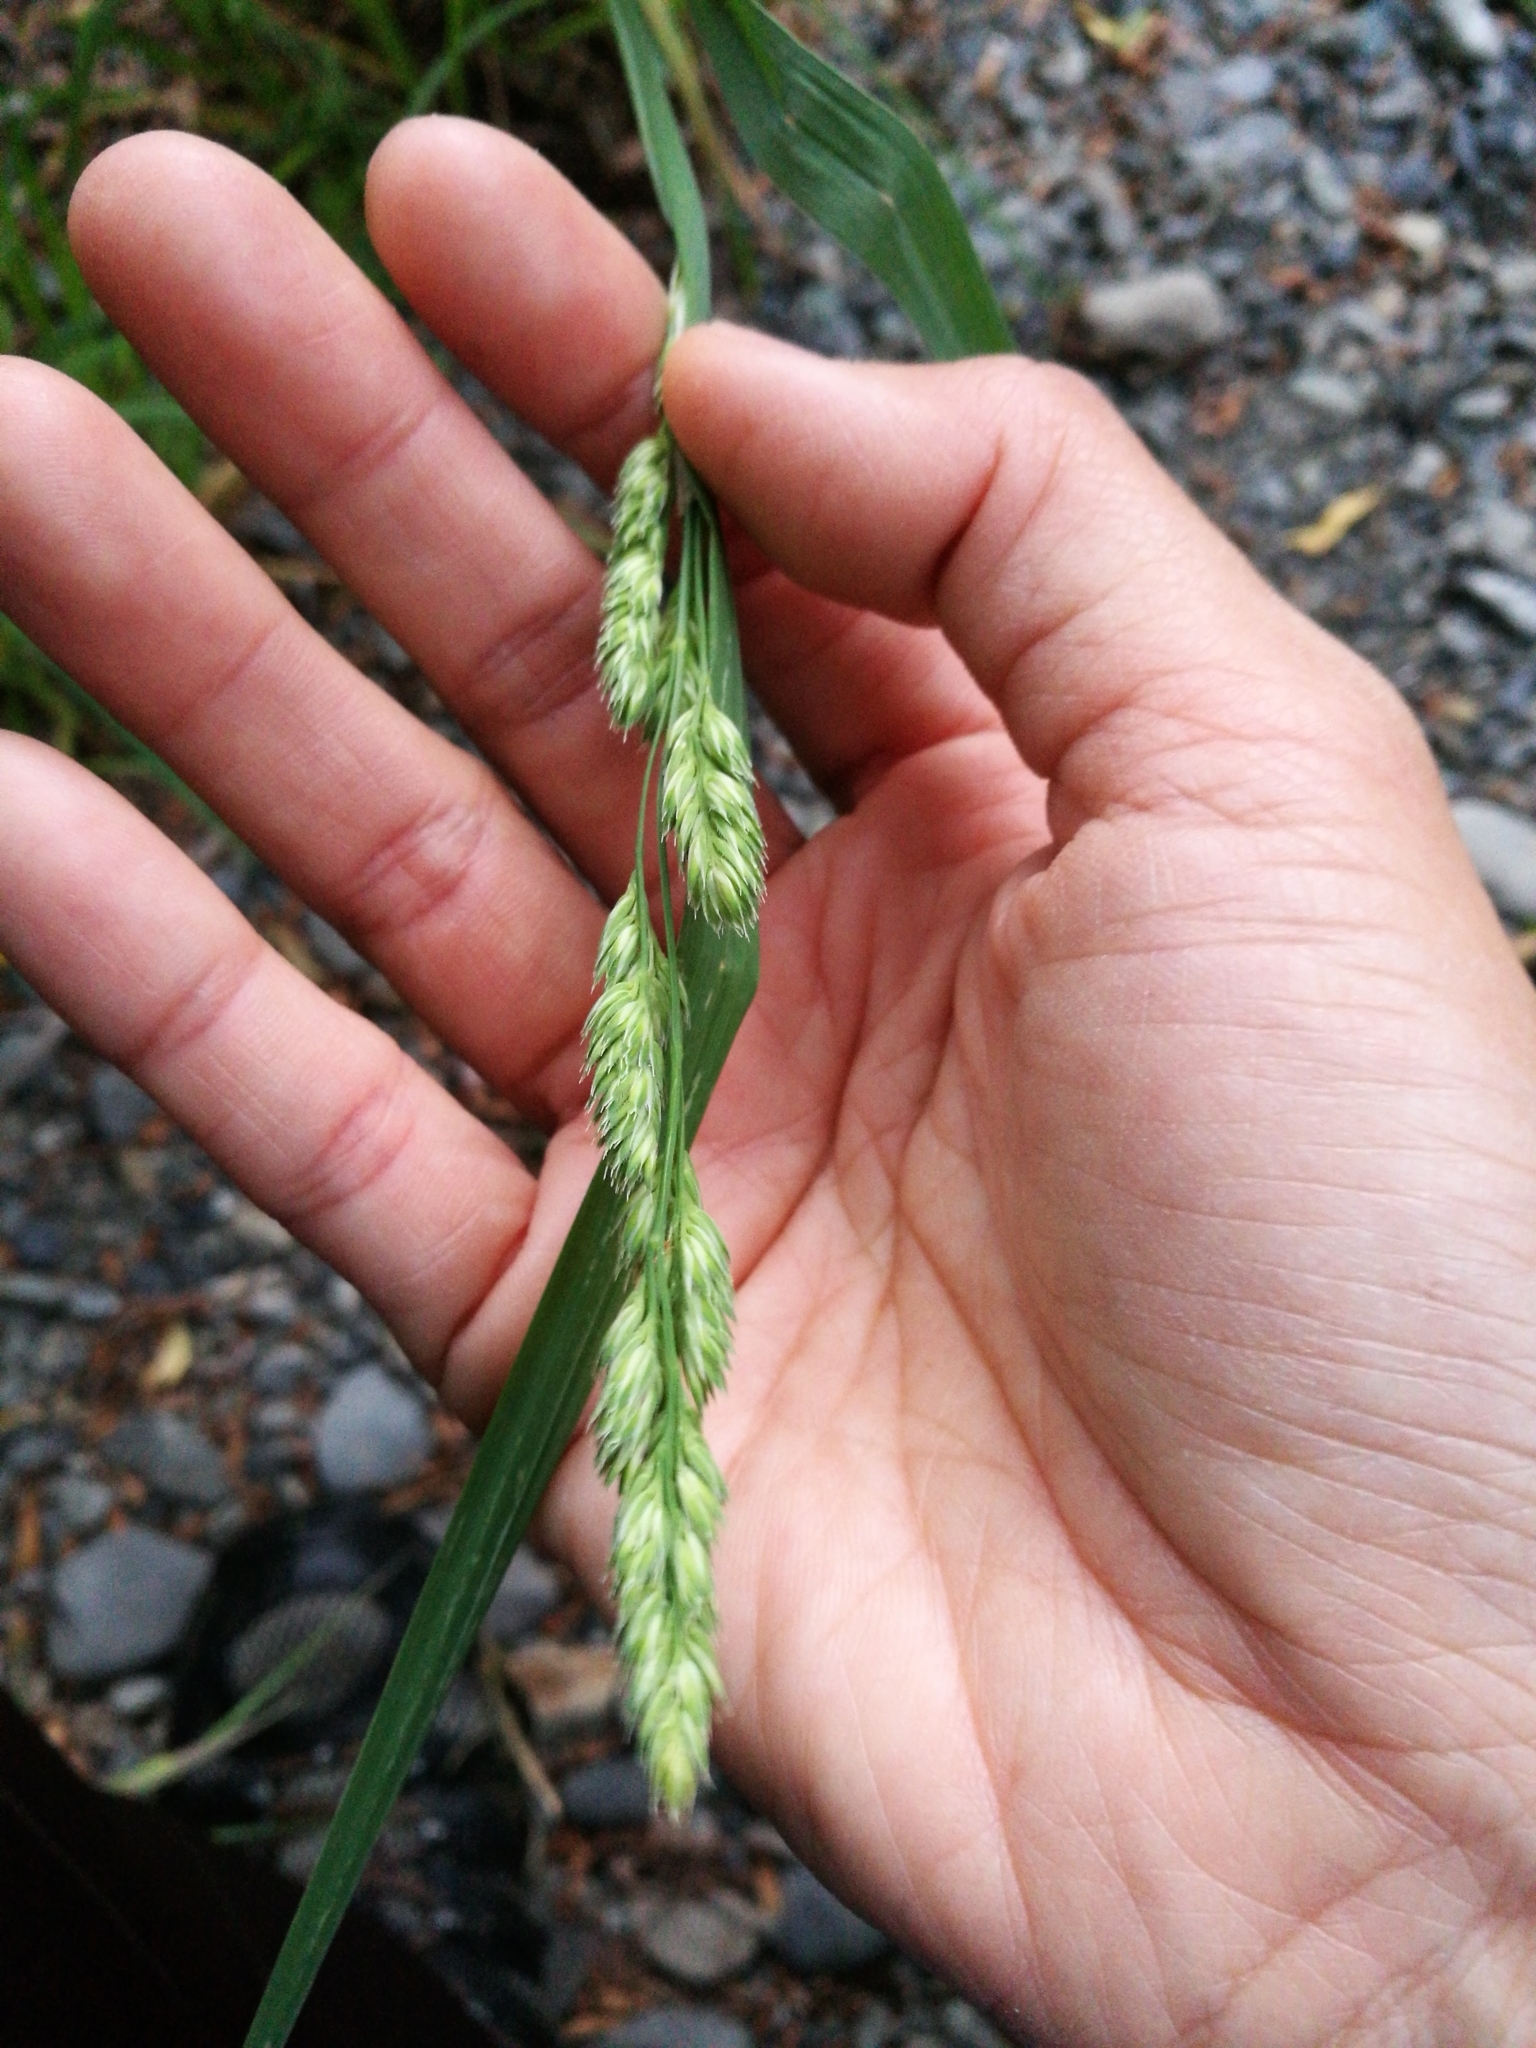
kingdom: Plantae
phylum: Tracheophyta
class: Liliopsida
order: Poales
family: Poaceae
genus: Dactylis
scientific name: Dactylis glomerata
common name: Orchardgrass
